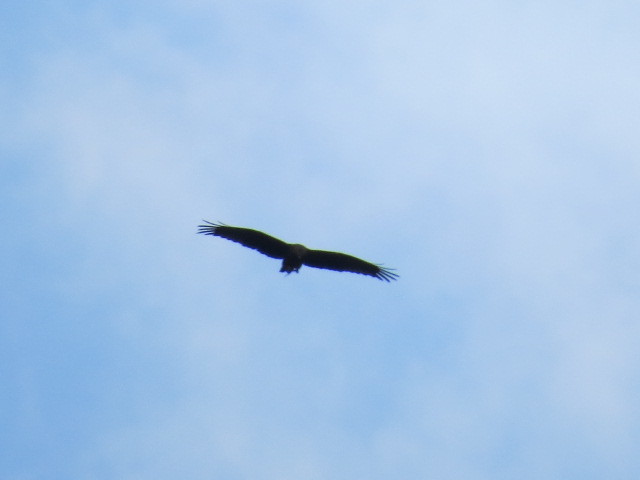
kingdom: Animalia
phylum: Chordata
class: Aves
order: Accipitriformes
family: Accipitridae
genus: Milvus
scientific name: Milvus migrans
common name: Black kite
